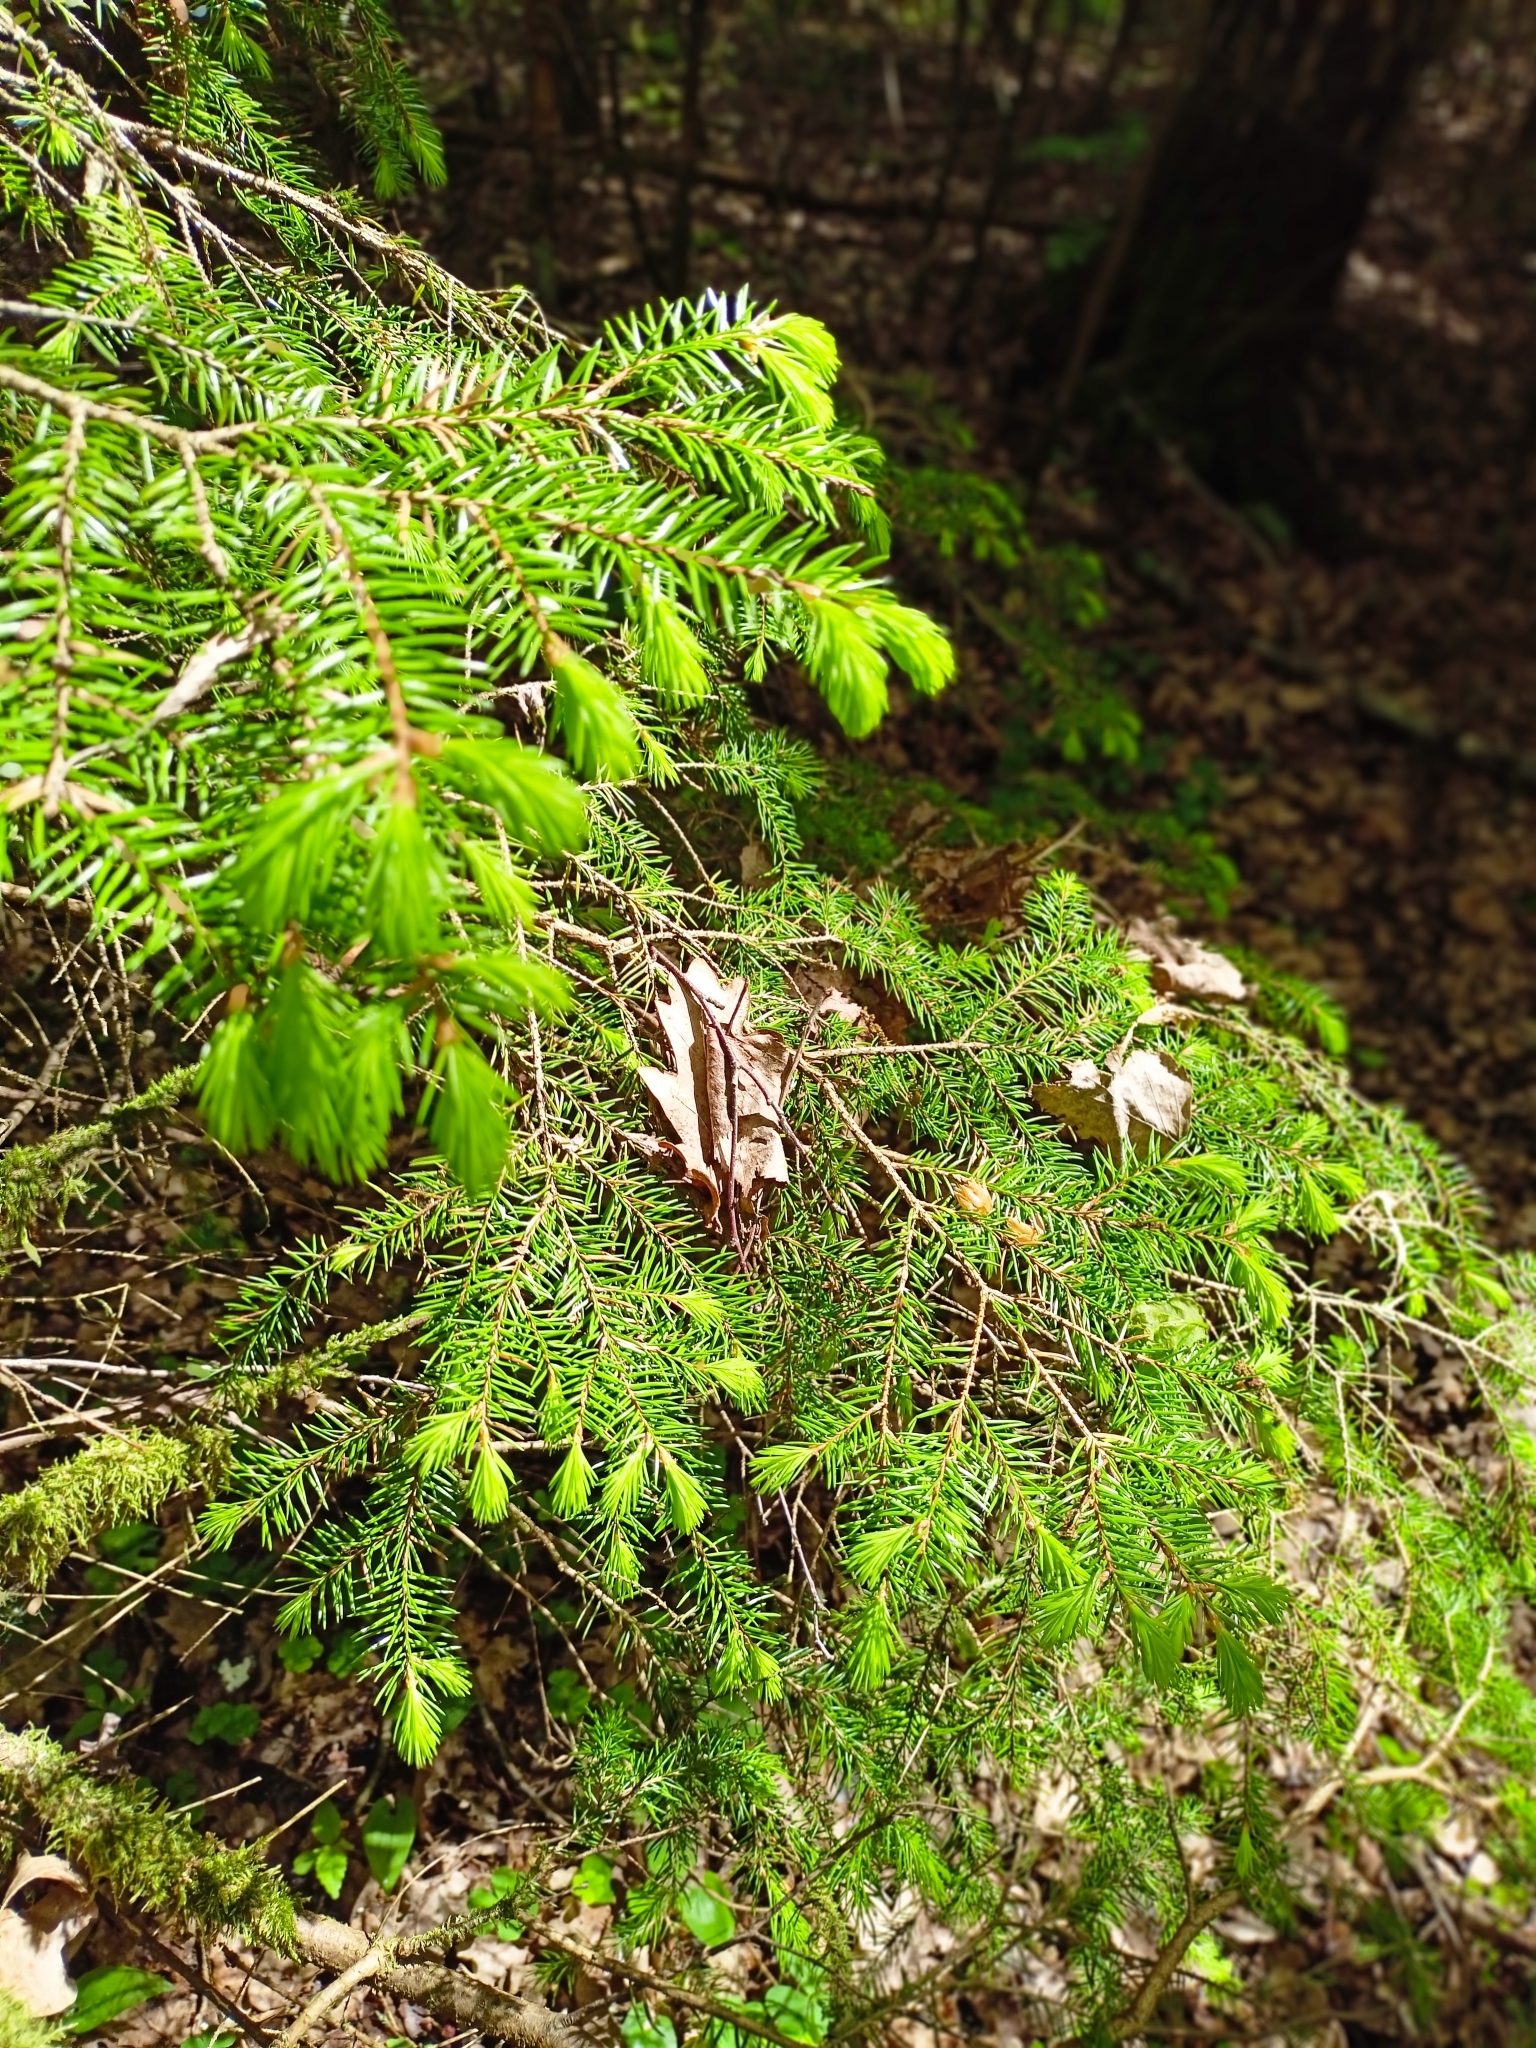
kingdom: Plantae
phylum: Tracheophyta
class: Pinopsida
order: Pinales
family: Pinaceae
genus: Picea
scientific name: Picea abies
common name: Norway spruce
